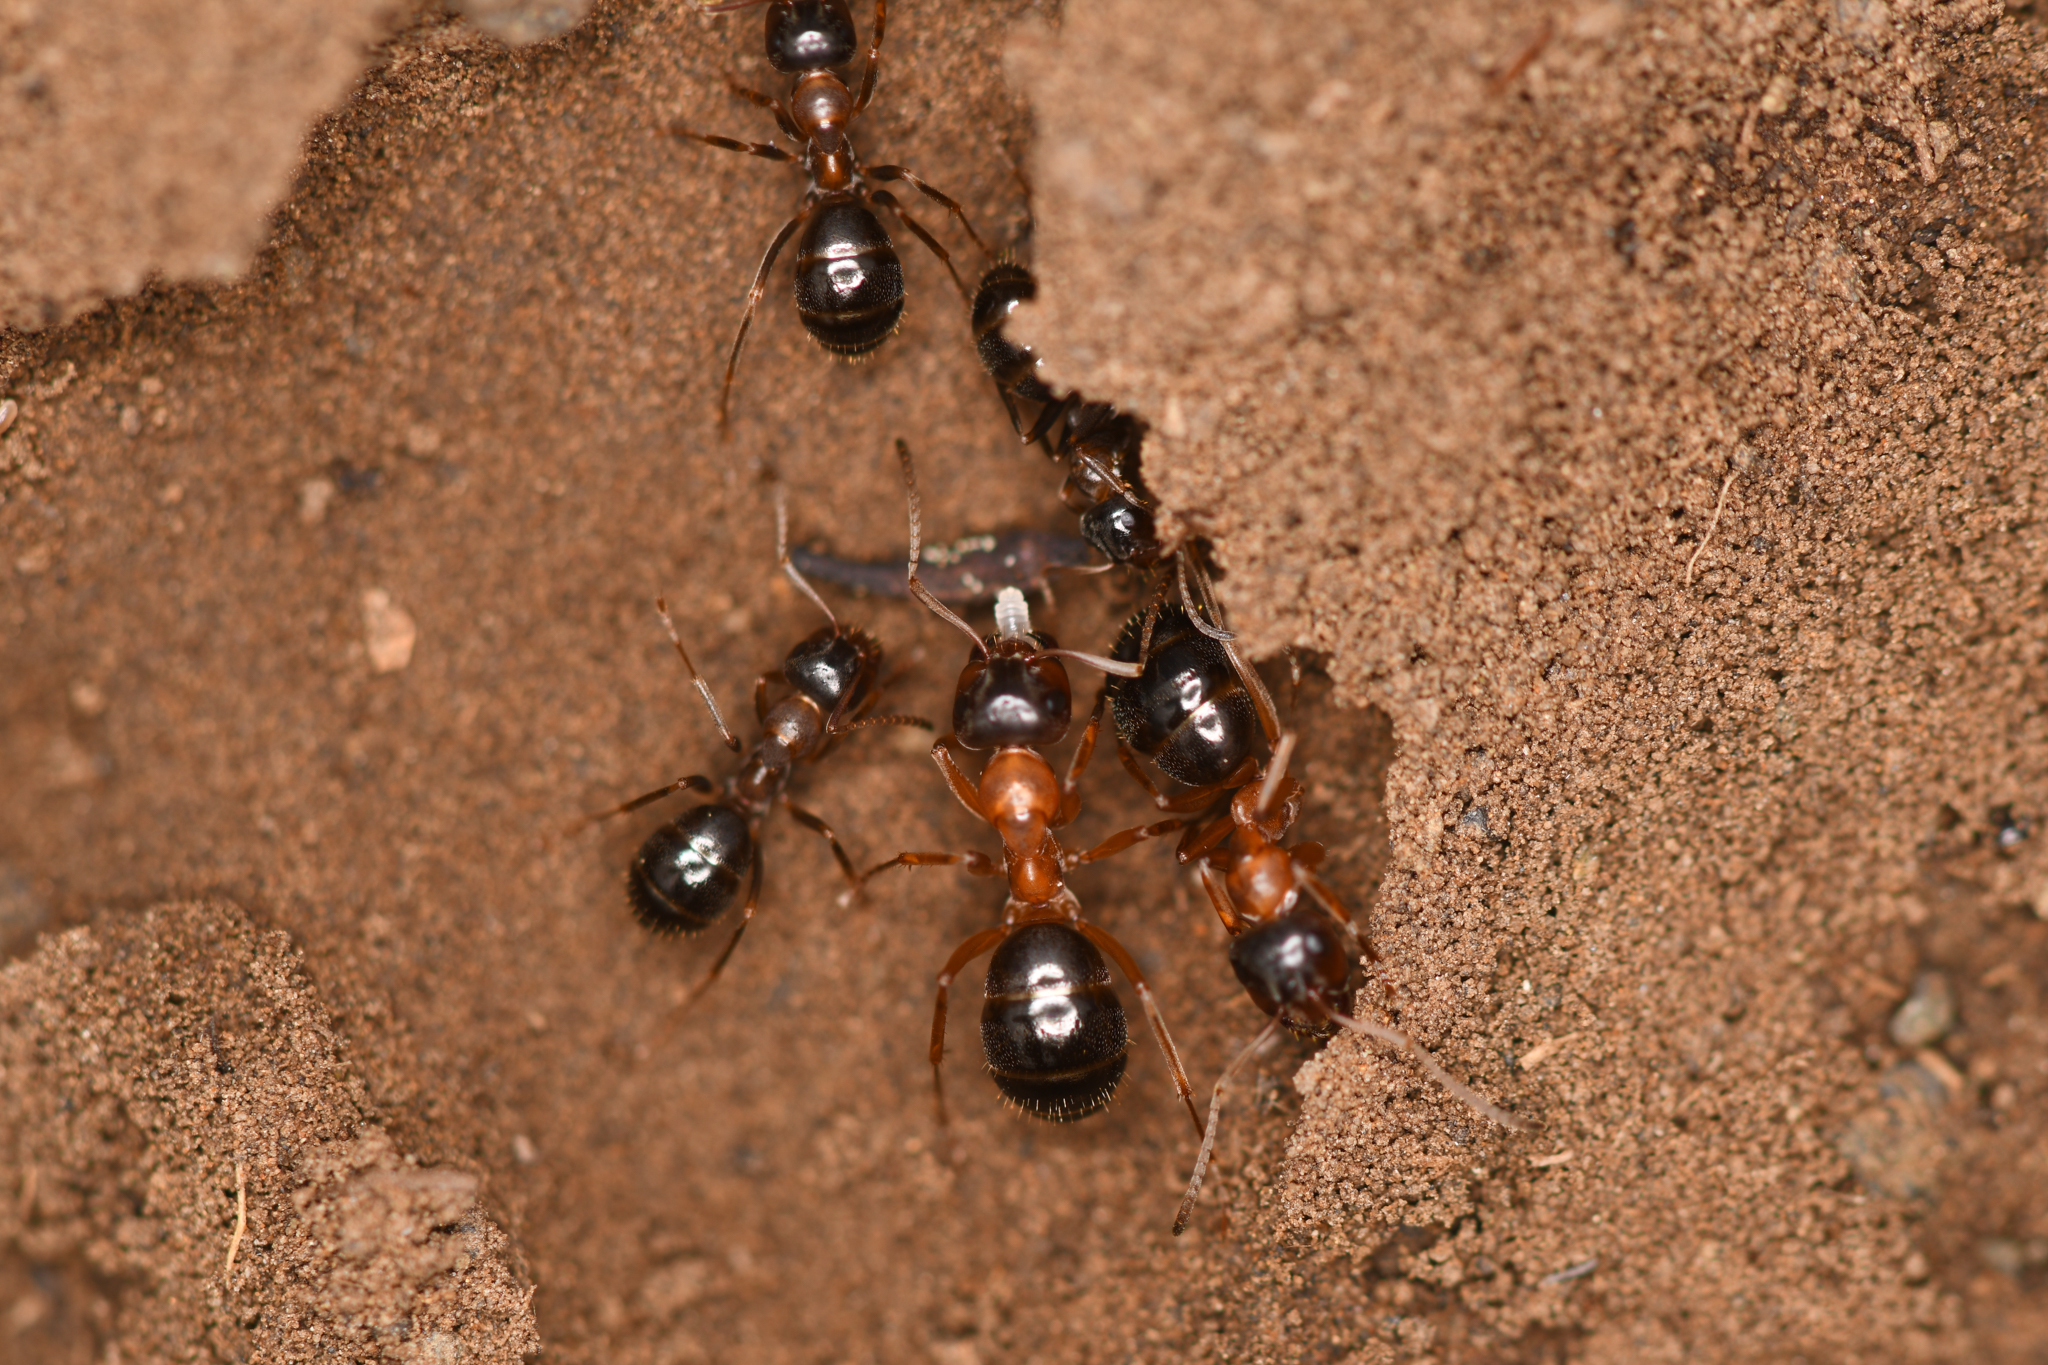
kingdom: Animalia
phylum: Arthropoda
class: Insecta
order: Hymenoptera
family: Formicidae
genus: Formica
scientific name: Formica subpolita
